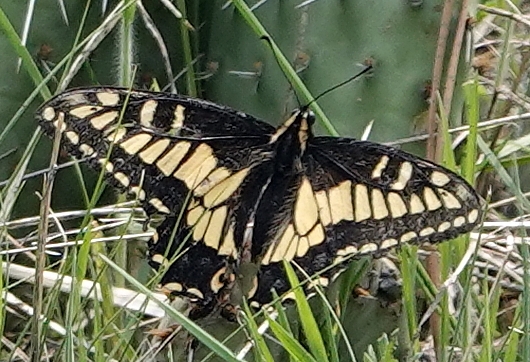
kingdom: Animalia
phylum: Arthropoda
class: Insecta
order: Lepidoptera
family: Papilionidae
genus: Papilio
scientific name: Papilio zelicaon
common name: Anise swallowtail
